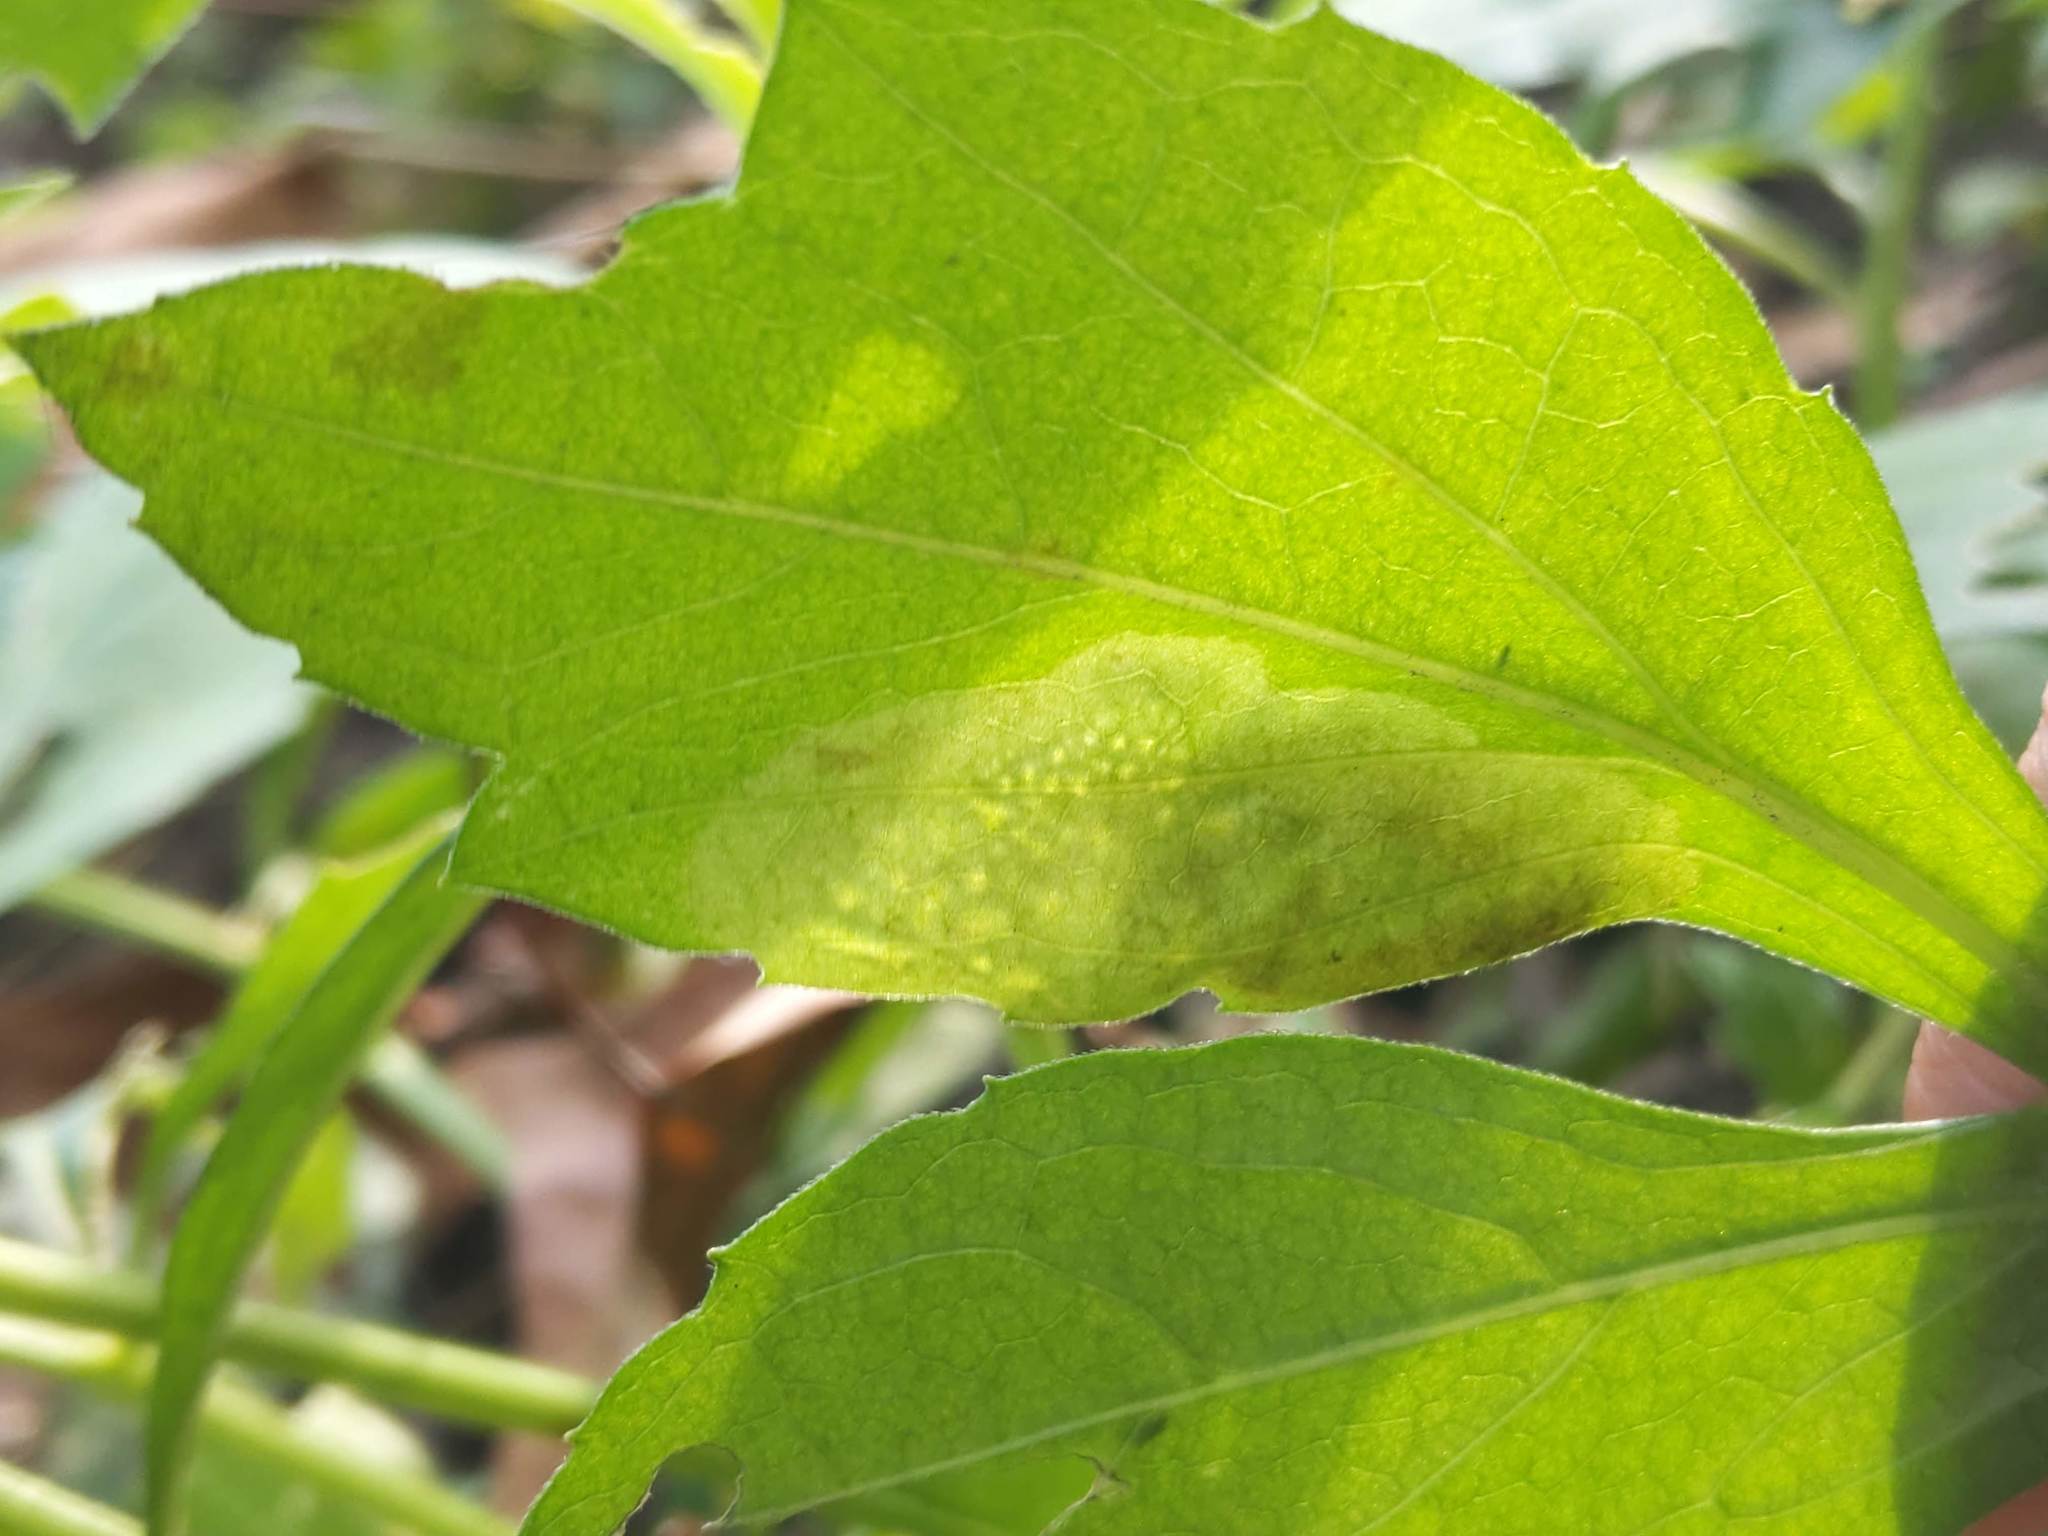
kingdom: Animalia
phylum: Arthropoda
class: Insecta
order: Diptera
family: Agromyzidae
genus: Calycomyza
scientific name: Calycomyza frickiana
